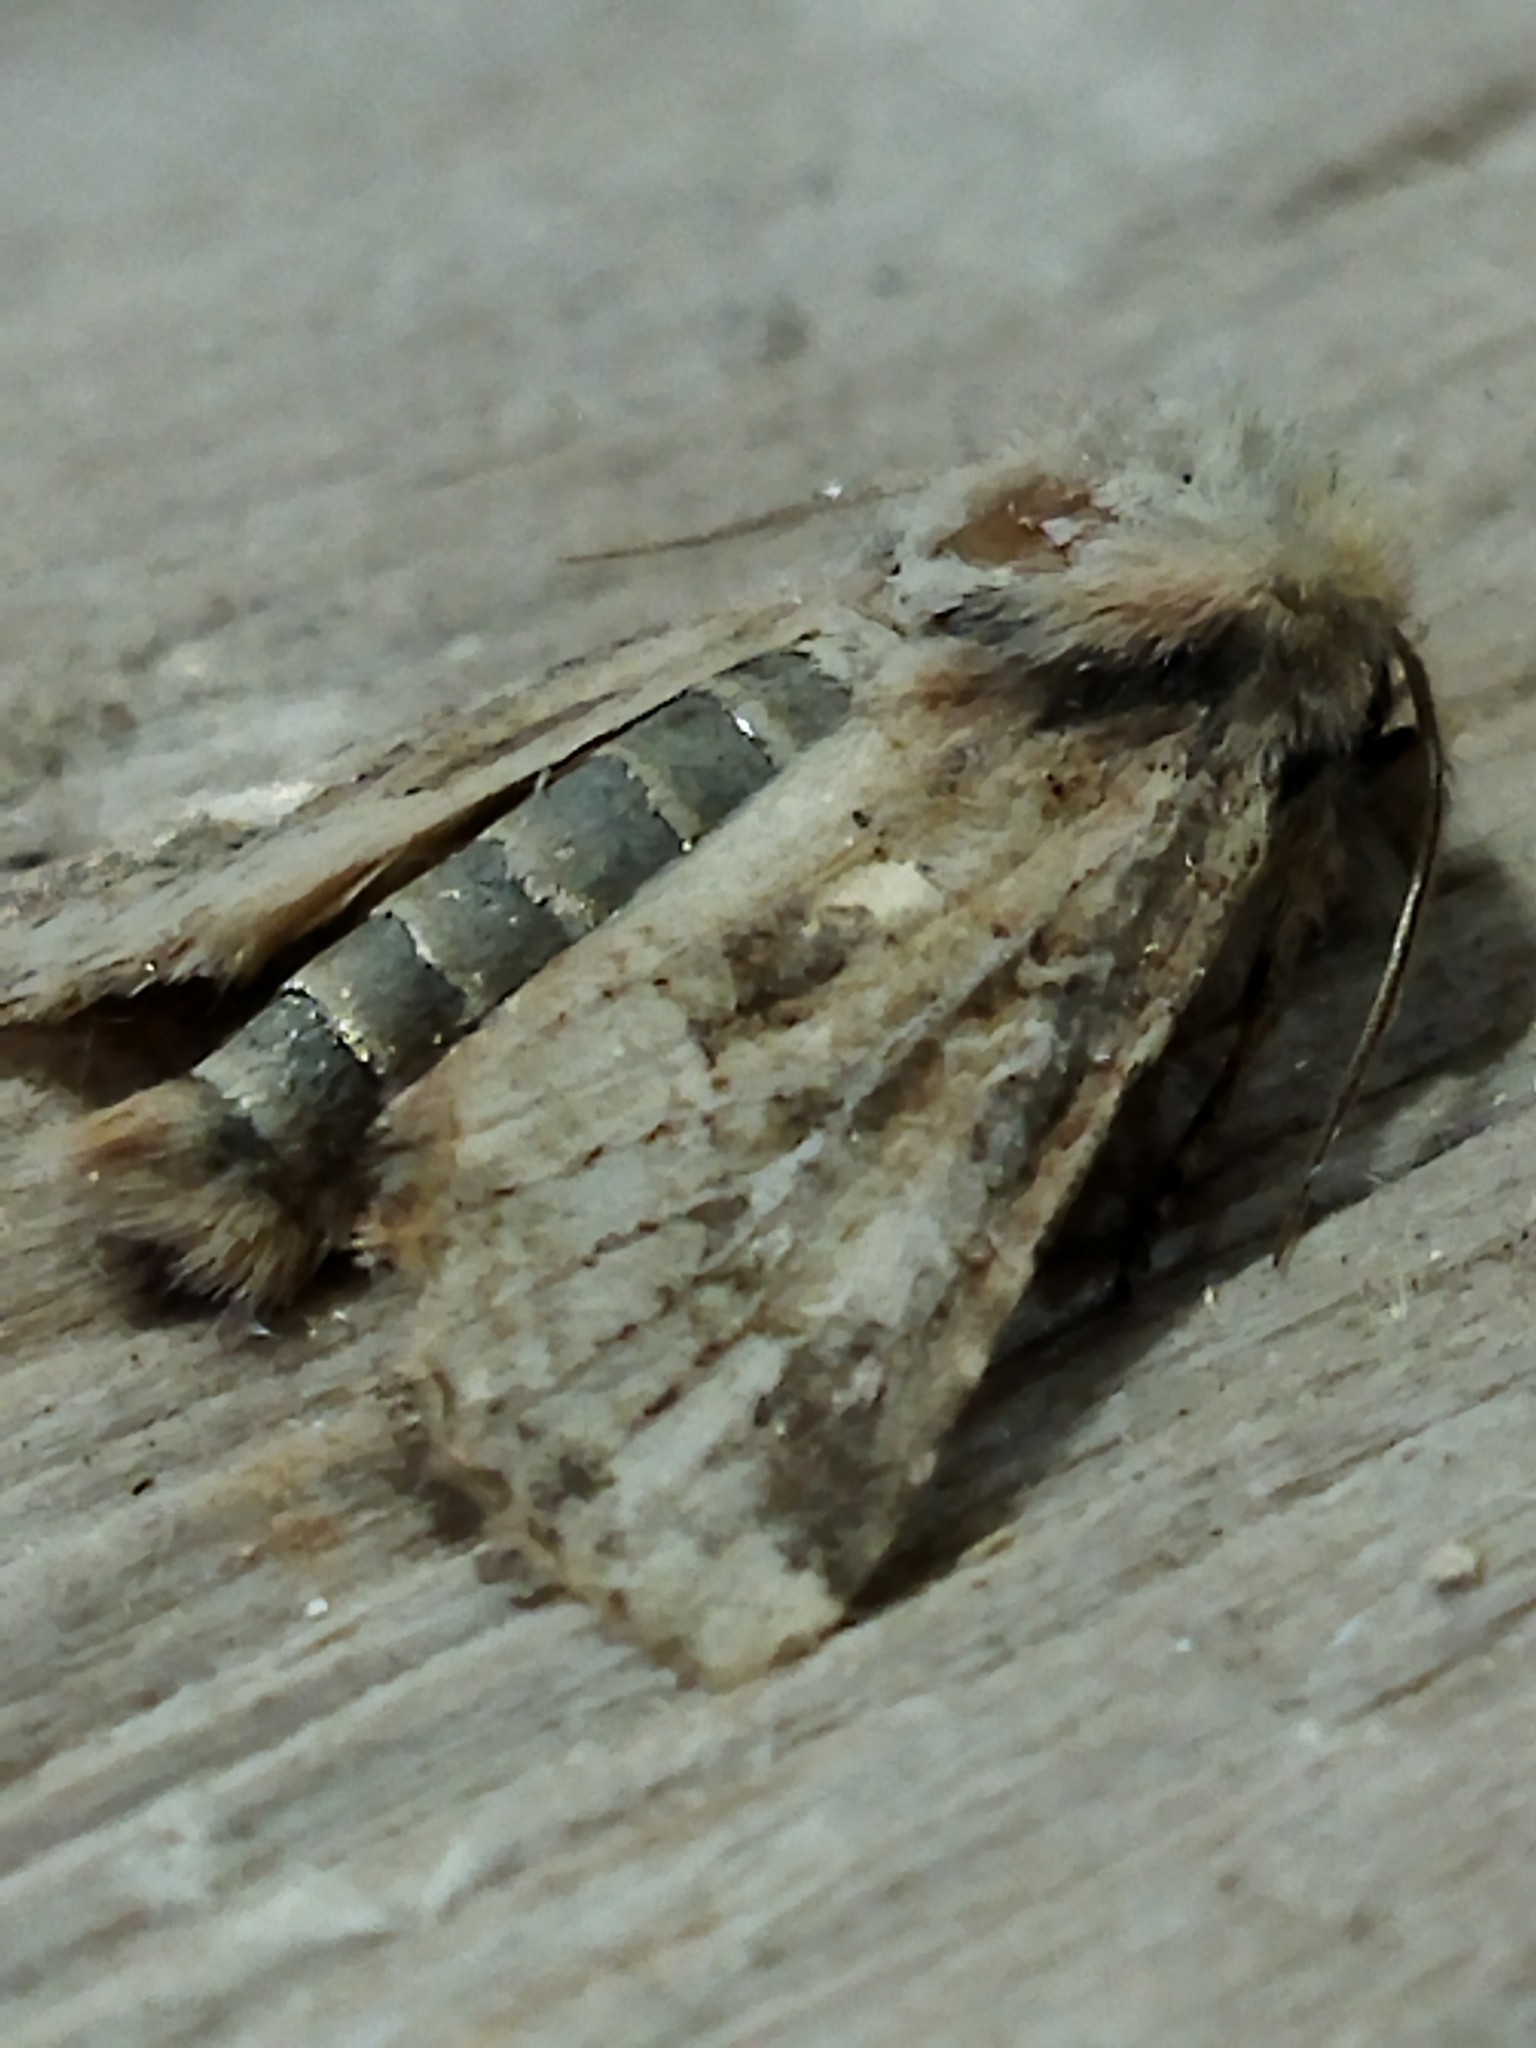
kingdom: Animalia
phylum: Arthropoda
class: Insecta
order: Lepidoptera
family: Noctuidae
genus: Luperina
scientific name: Luperina dumerilii
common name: Dumeril's rustic
